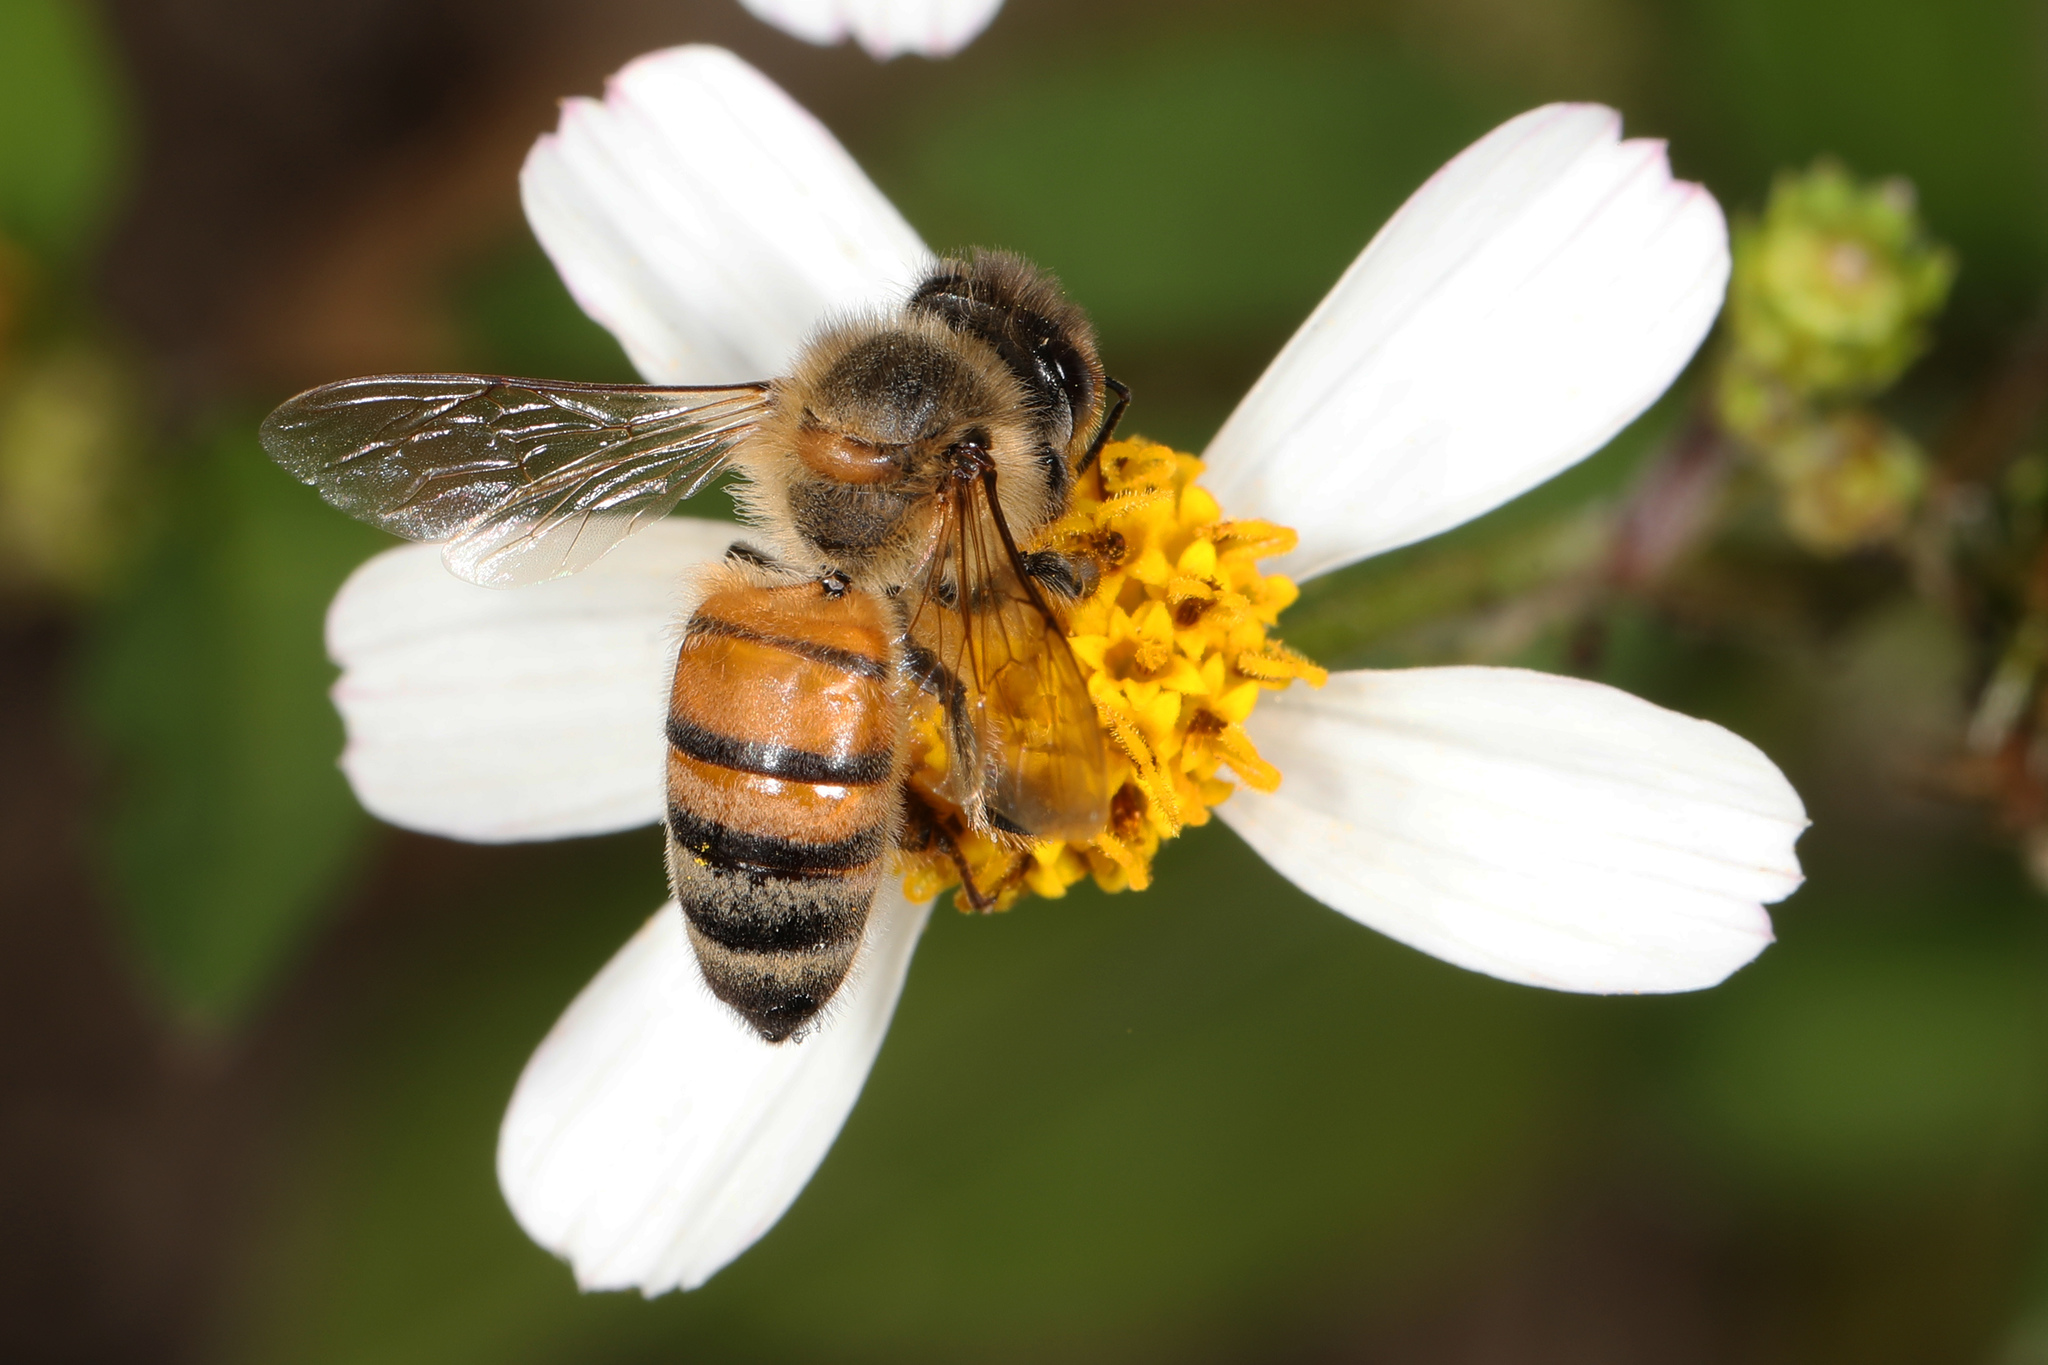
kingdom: Animalia
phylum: Arthropoda
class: Insecta
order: Hymenoptera
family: Apidae
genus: Apis
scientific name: Apis mellifera
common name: Honey bee
